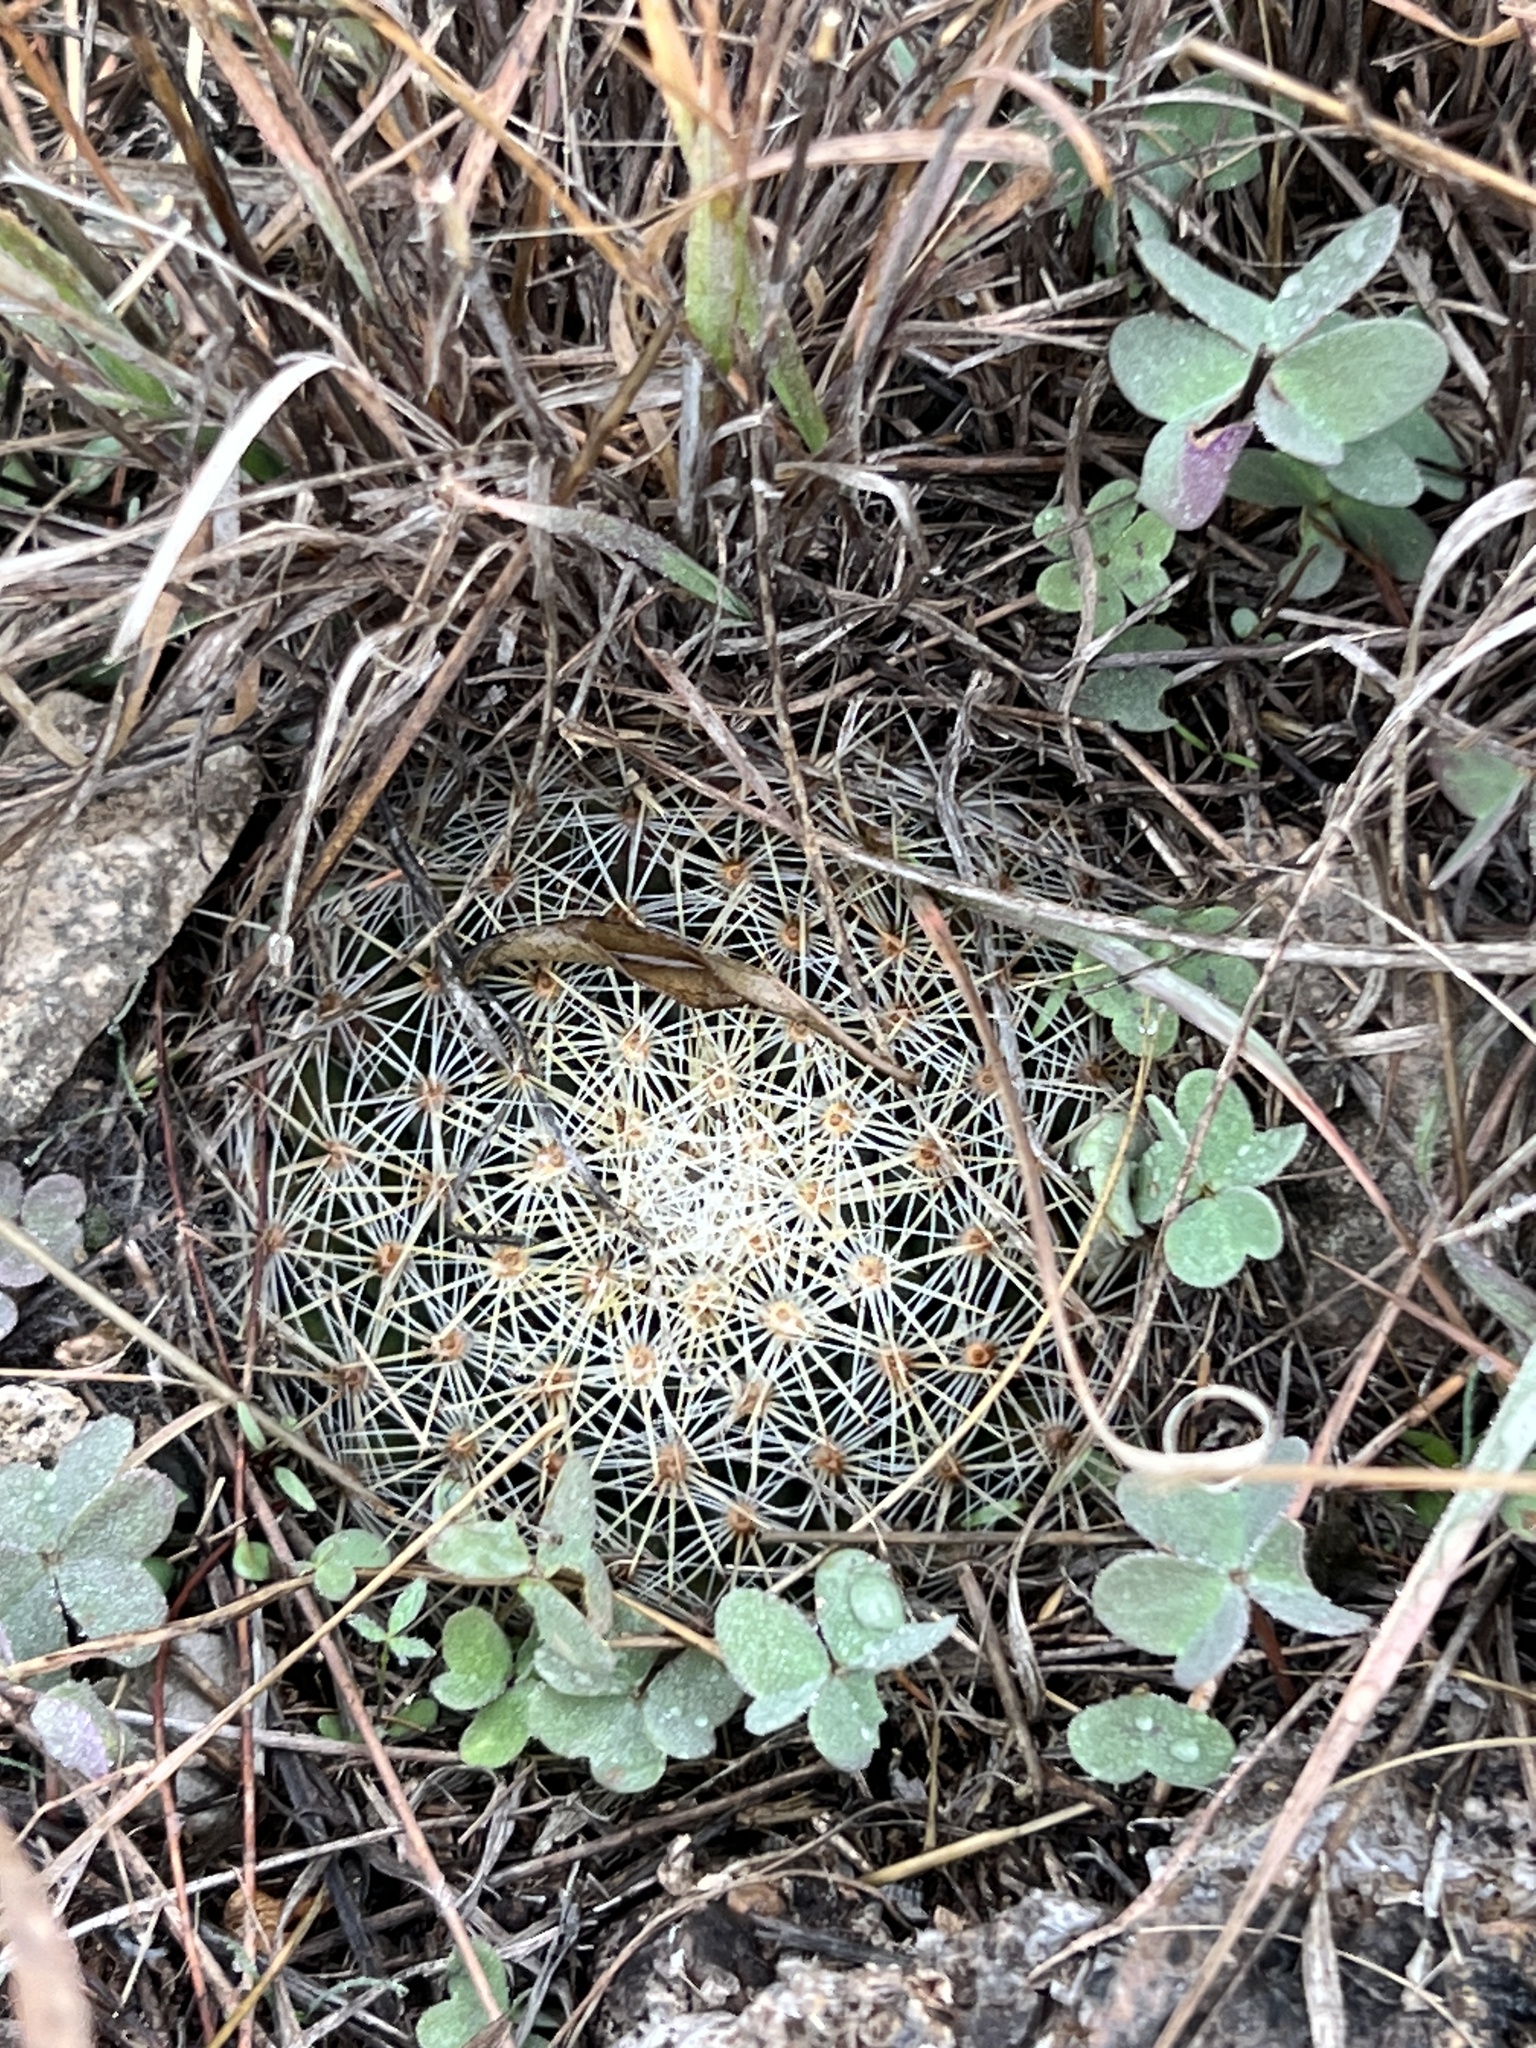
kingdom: Plantae
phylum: Tracheophyta
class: Magnoliopsida
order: Caryophyllales
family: Cactaceae
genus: Mammillaria
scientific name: Mammillaria heyderi
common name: Little nipple cactus
